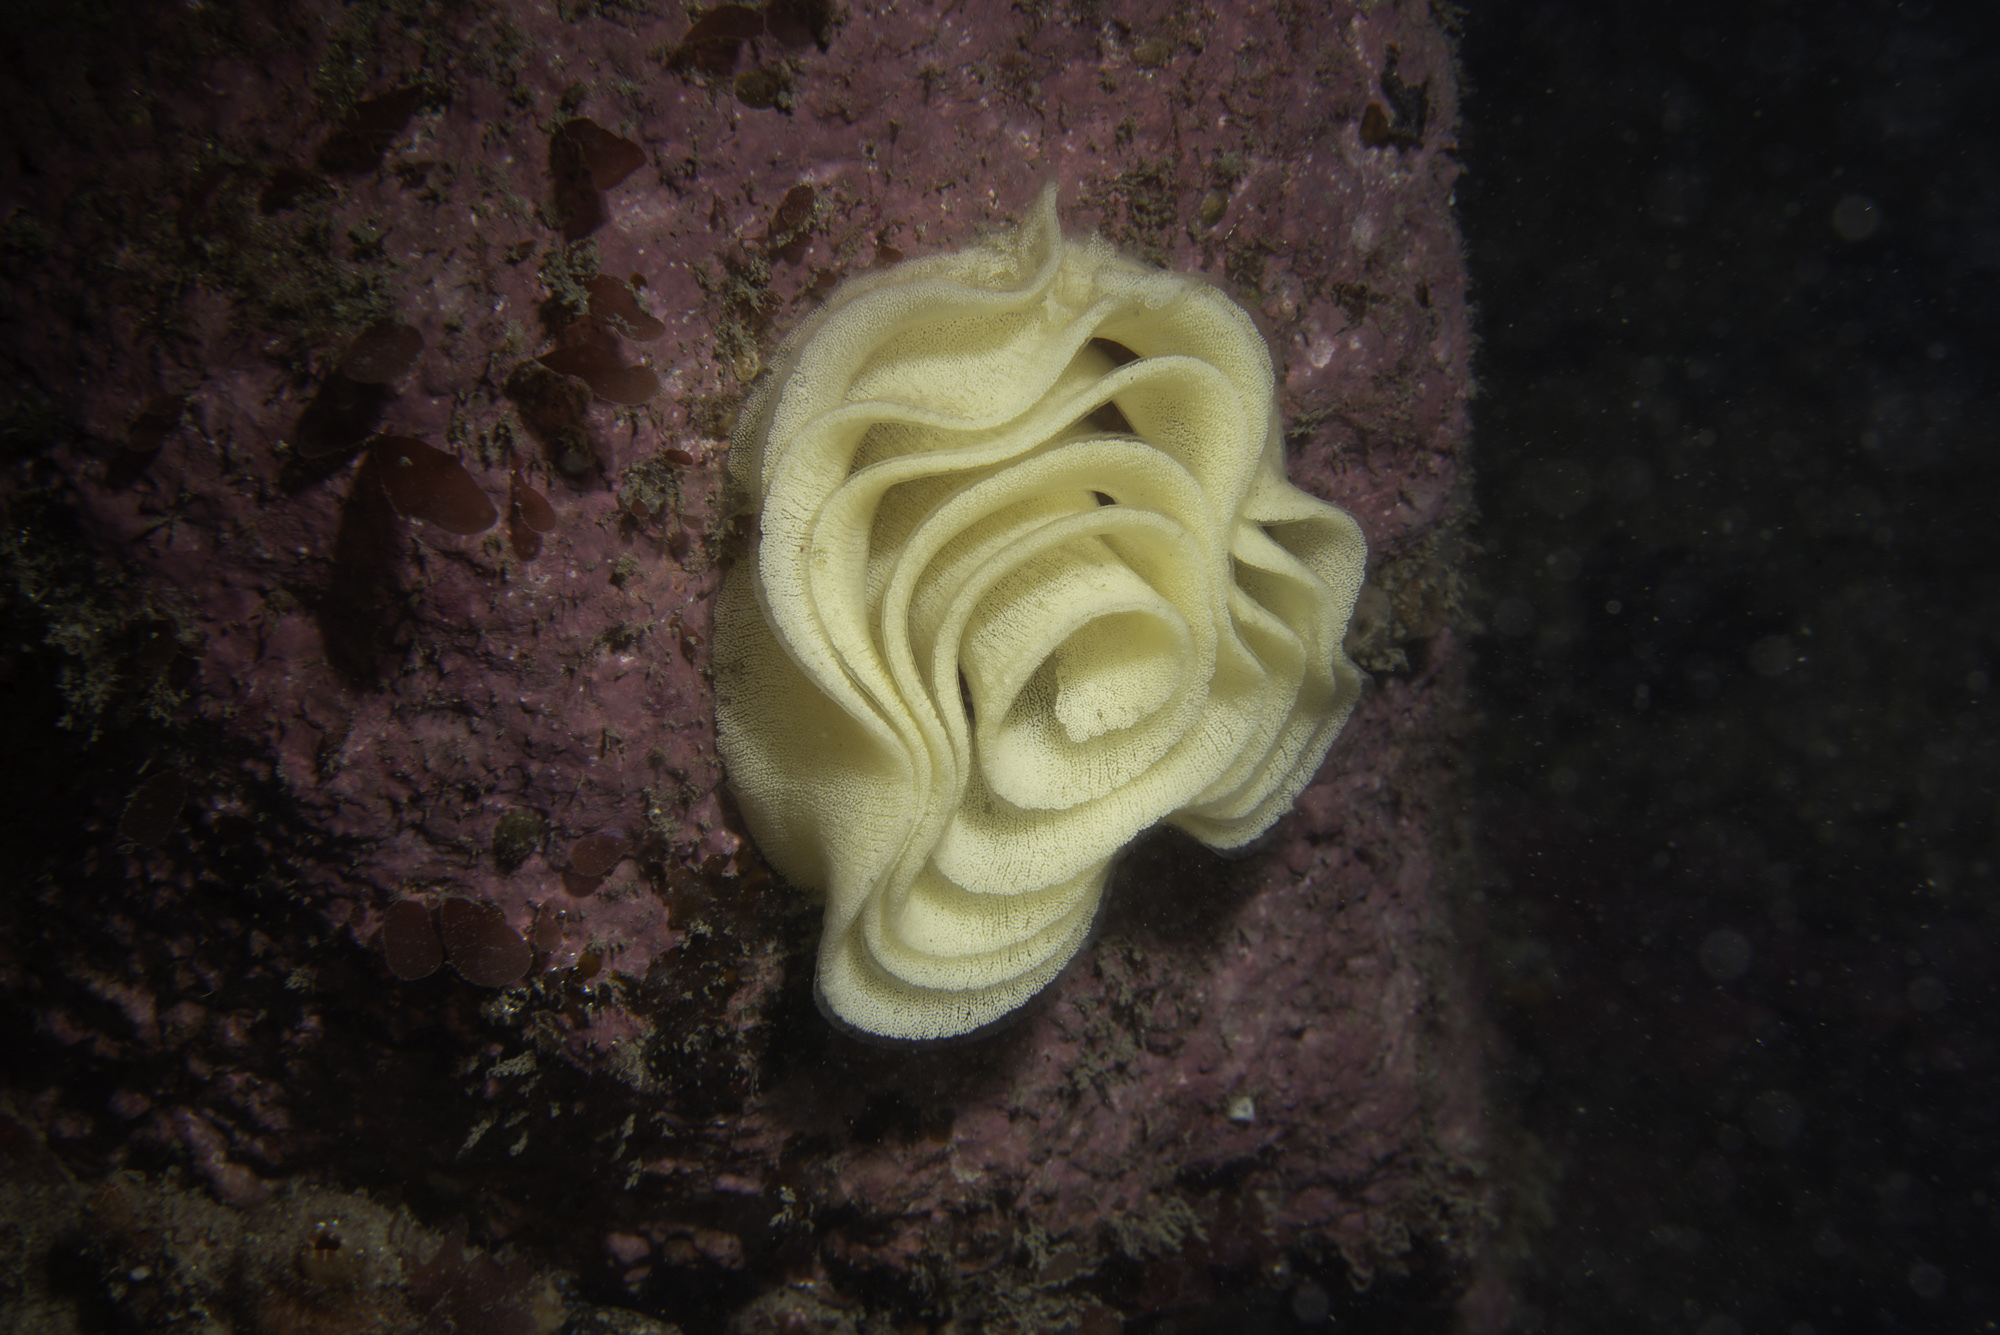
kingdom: Animalia
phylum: Mollusca
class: Gastropoda
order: Nudibranchia
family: Dorididae
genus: Doris
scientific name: Doris pseudoargus
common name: Sea lemon
